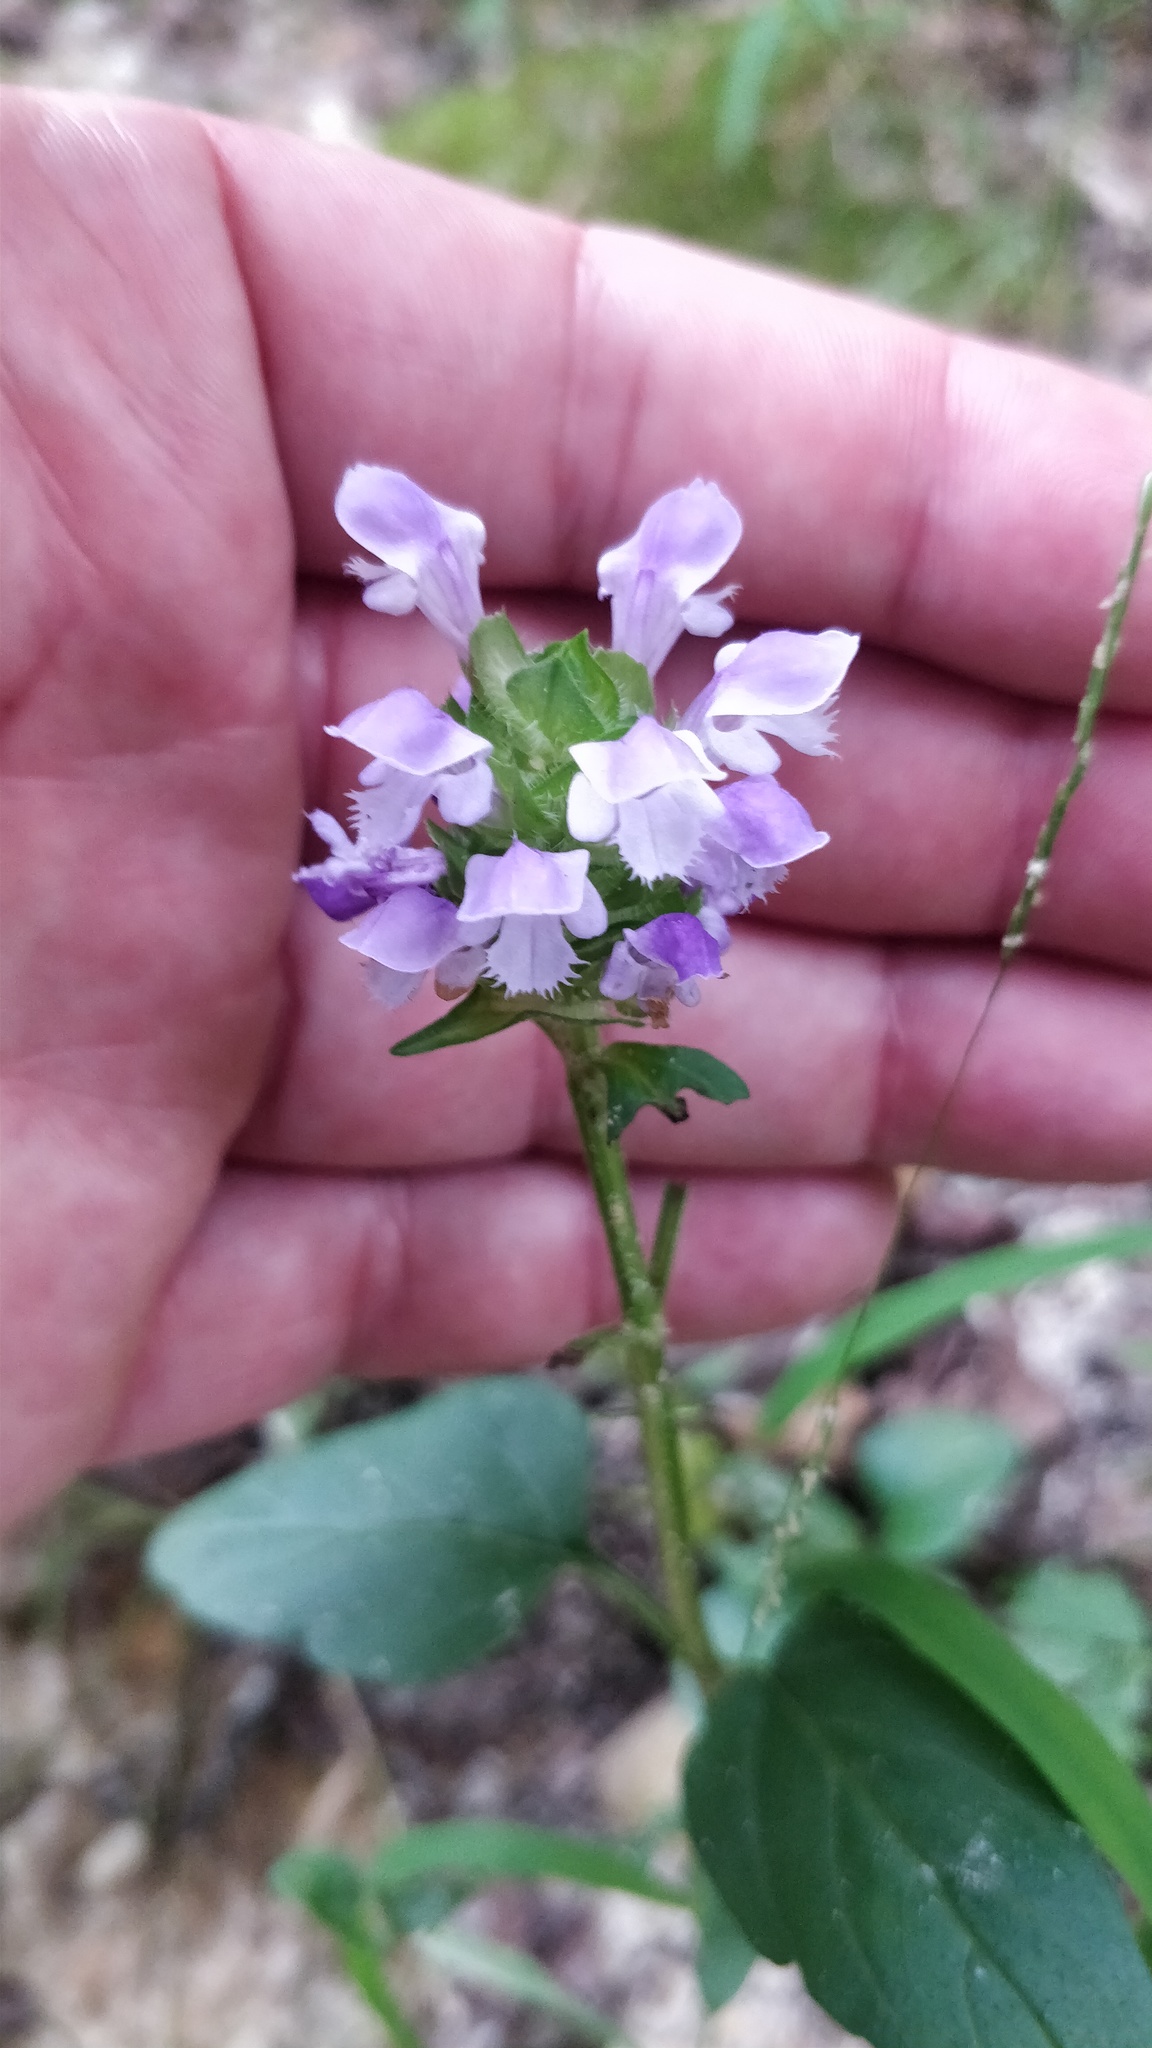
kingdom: Plantae
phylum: Tracheophyta
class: Magnoliopsida
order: Lamiales
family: Lamiaceae
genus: Prunella
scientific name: Prunella vulgaris
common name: Heal-all
